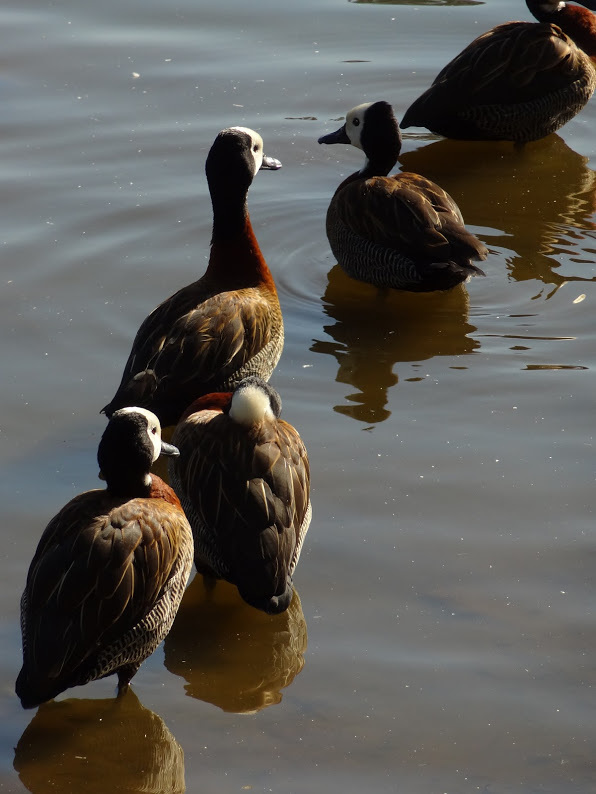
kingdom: Animalia
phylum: Chordata
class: Aves
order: Anseriformes
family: Anatidae
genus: Dendrocygna
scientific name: Dendrocygna viduata
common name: White-faced whistling duck
